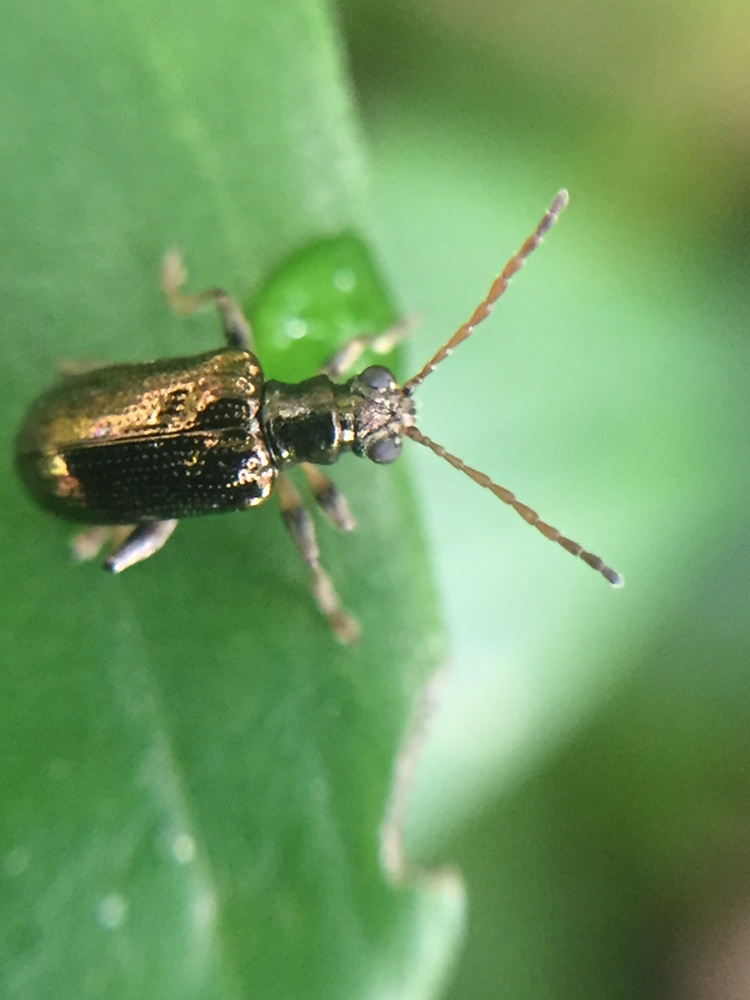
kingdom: Animalia
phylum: Arthropoda
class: Insecta
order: Coleoptera
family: Chrysomelidae
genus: Neolema
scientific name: Neolema ogloblini
